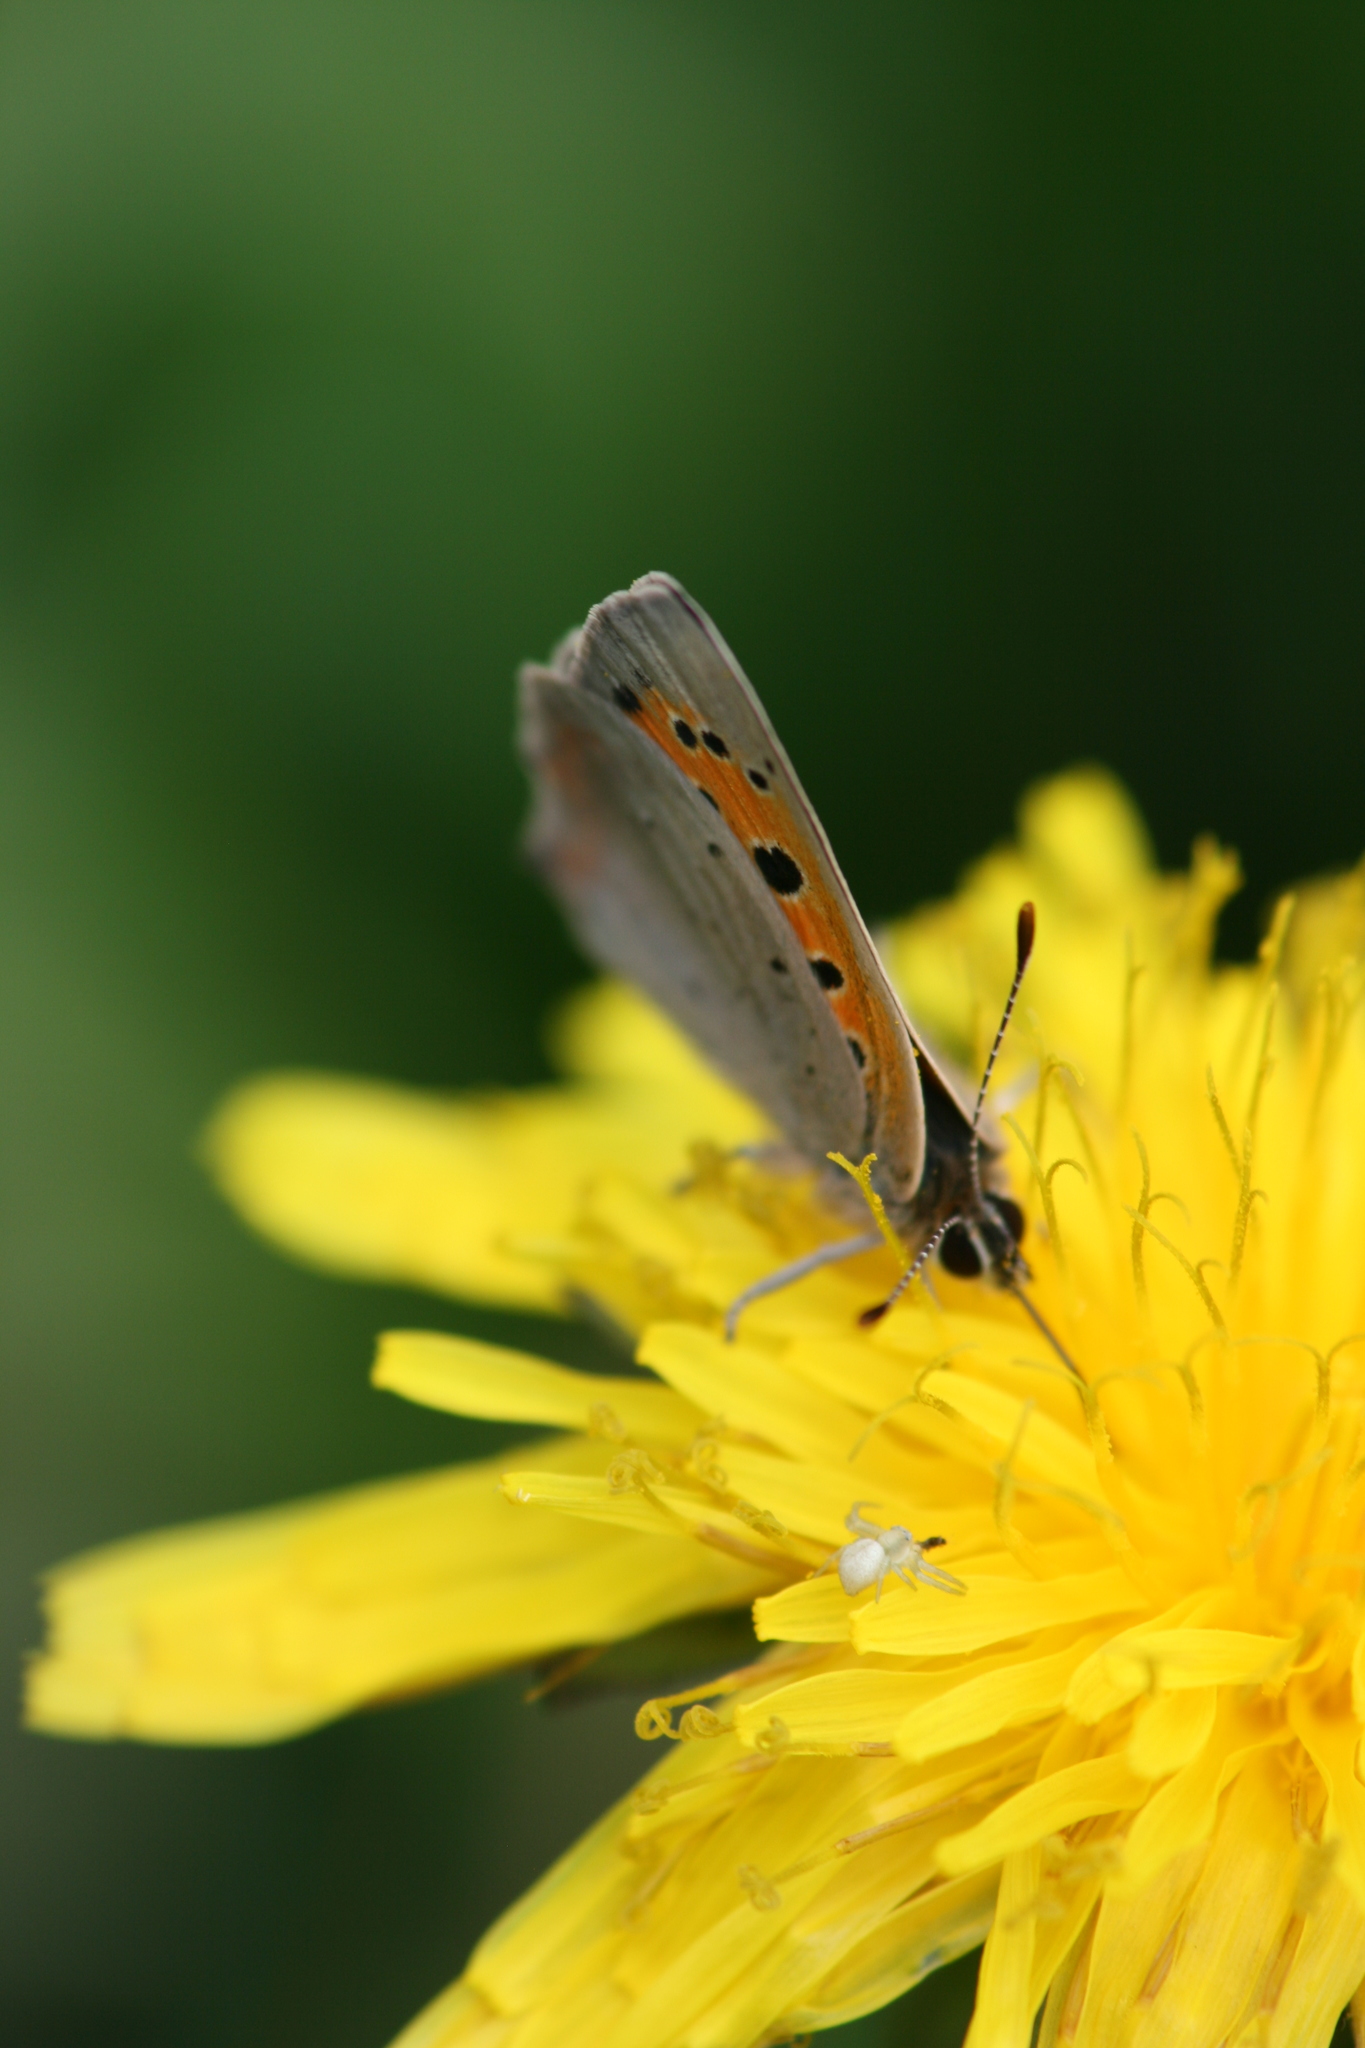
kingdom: Animalia
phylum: Arthropoda
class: Insecta
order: Lepidoptera
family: Lycaenidae
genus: Lycaena
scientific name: Lycaena phlaeas
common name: Small copper
